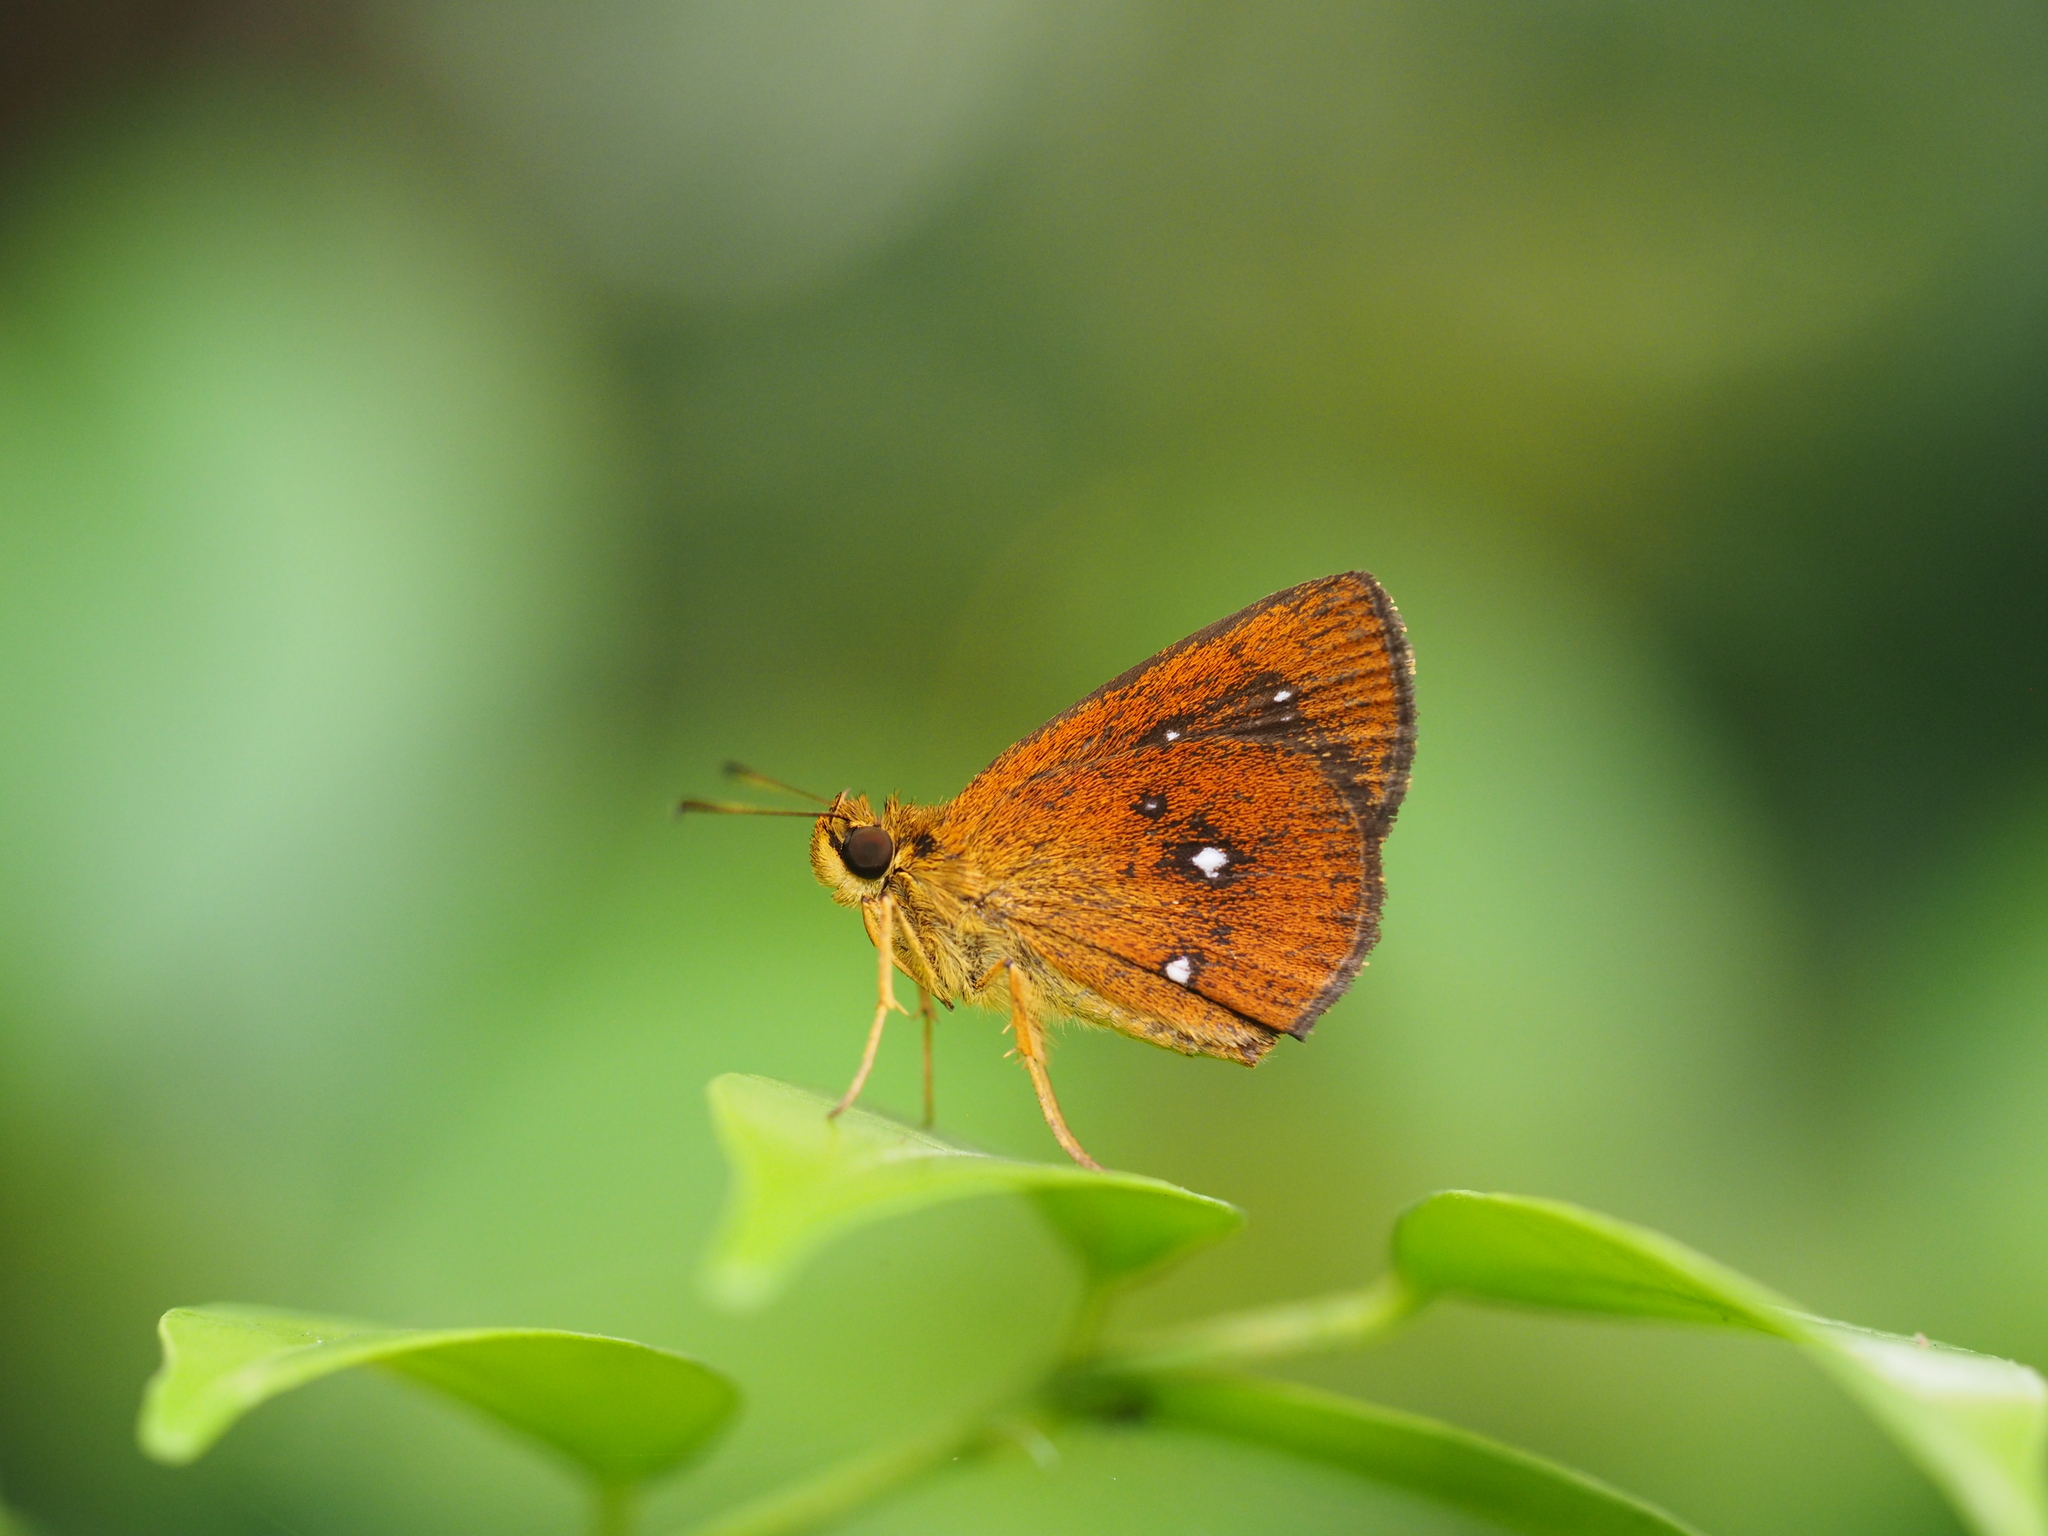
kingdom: Animalia
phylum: Arthropoda
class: Insecta
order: Lepidoptera
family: Hesperiidae
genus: Iambrix
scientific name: Iambrix salsala
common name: Chestnut bob
